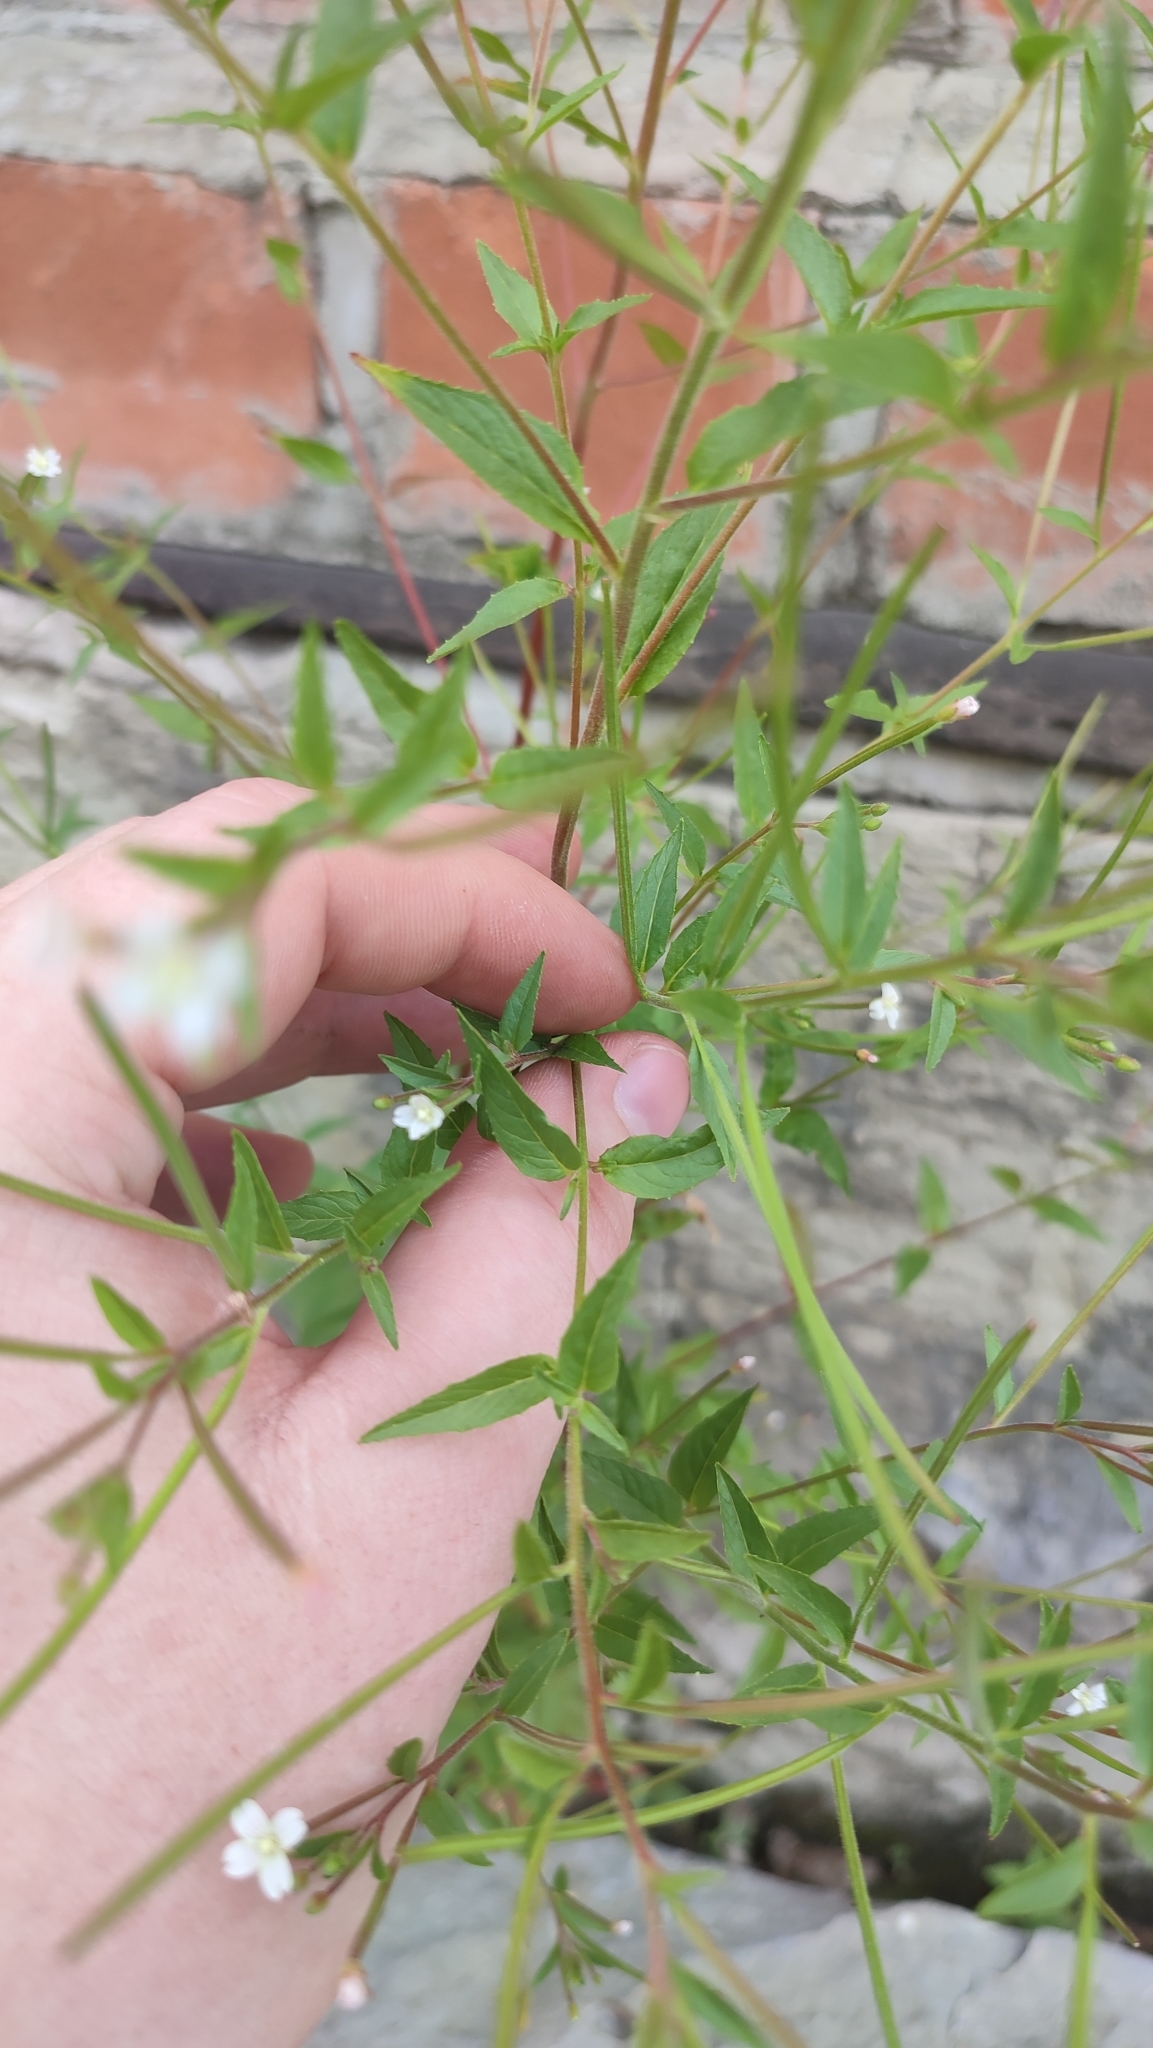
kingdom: Plantae
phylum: Tracheophyta
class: Magnoliopsida
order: Myrtales
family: Onagraceae
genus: Epilobium
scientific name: Epilobium pseudorubescens
